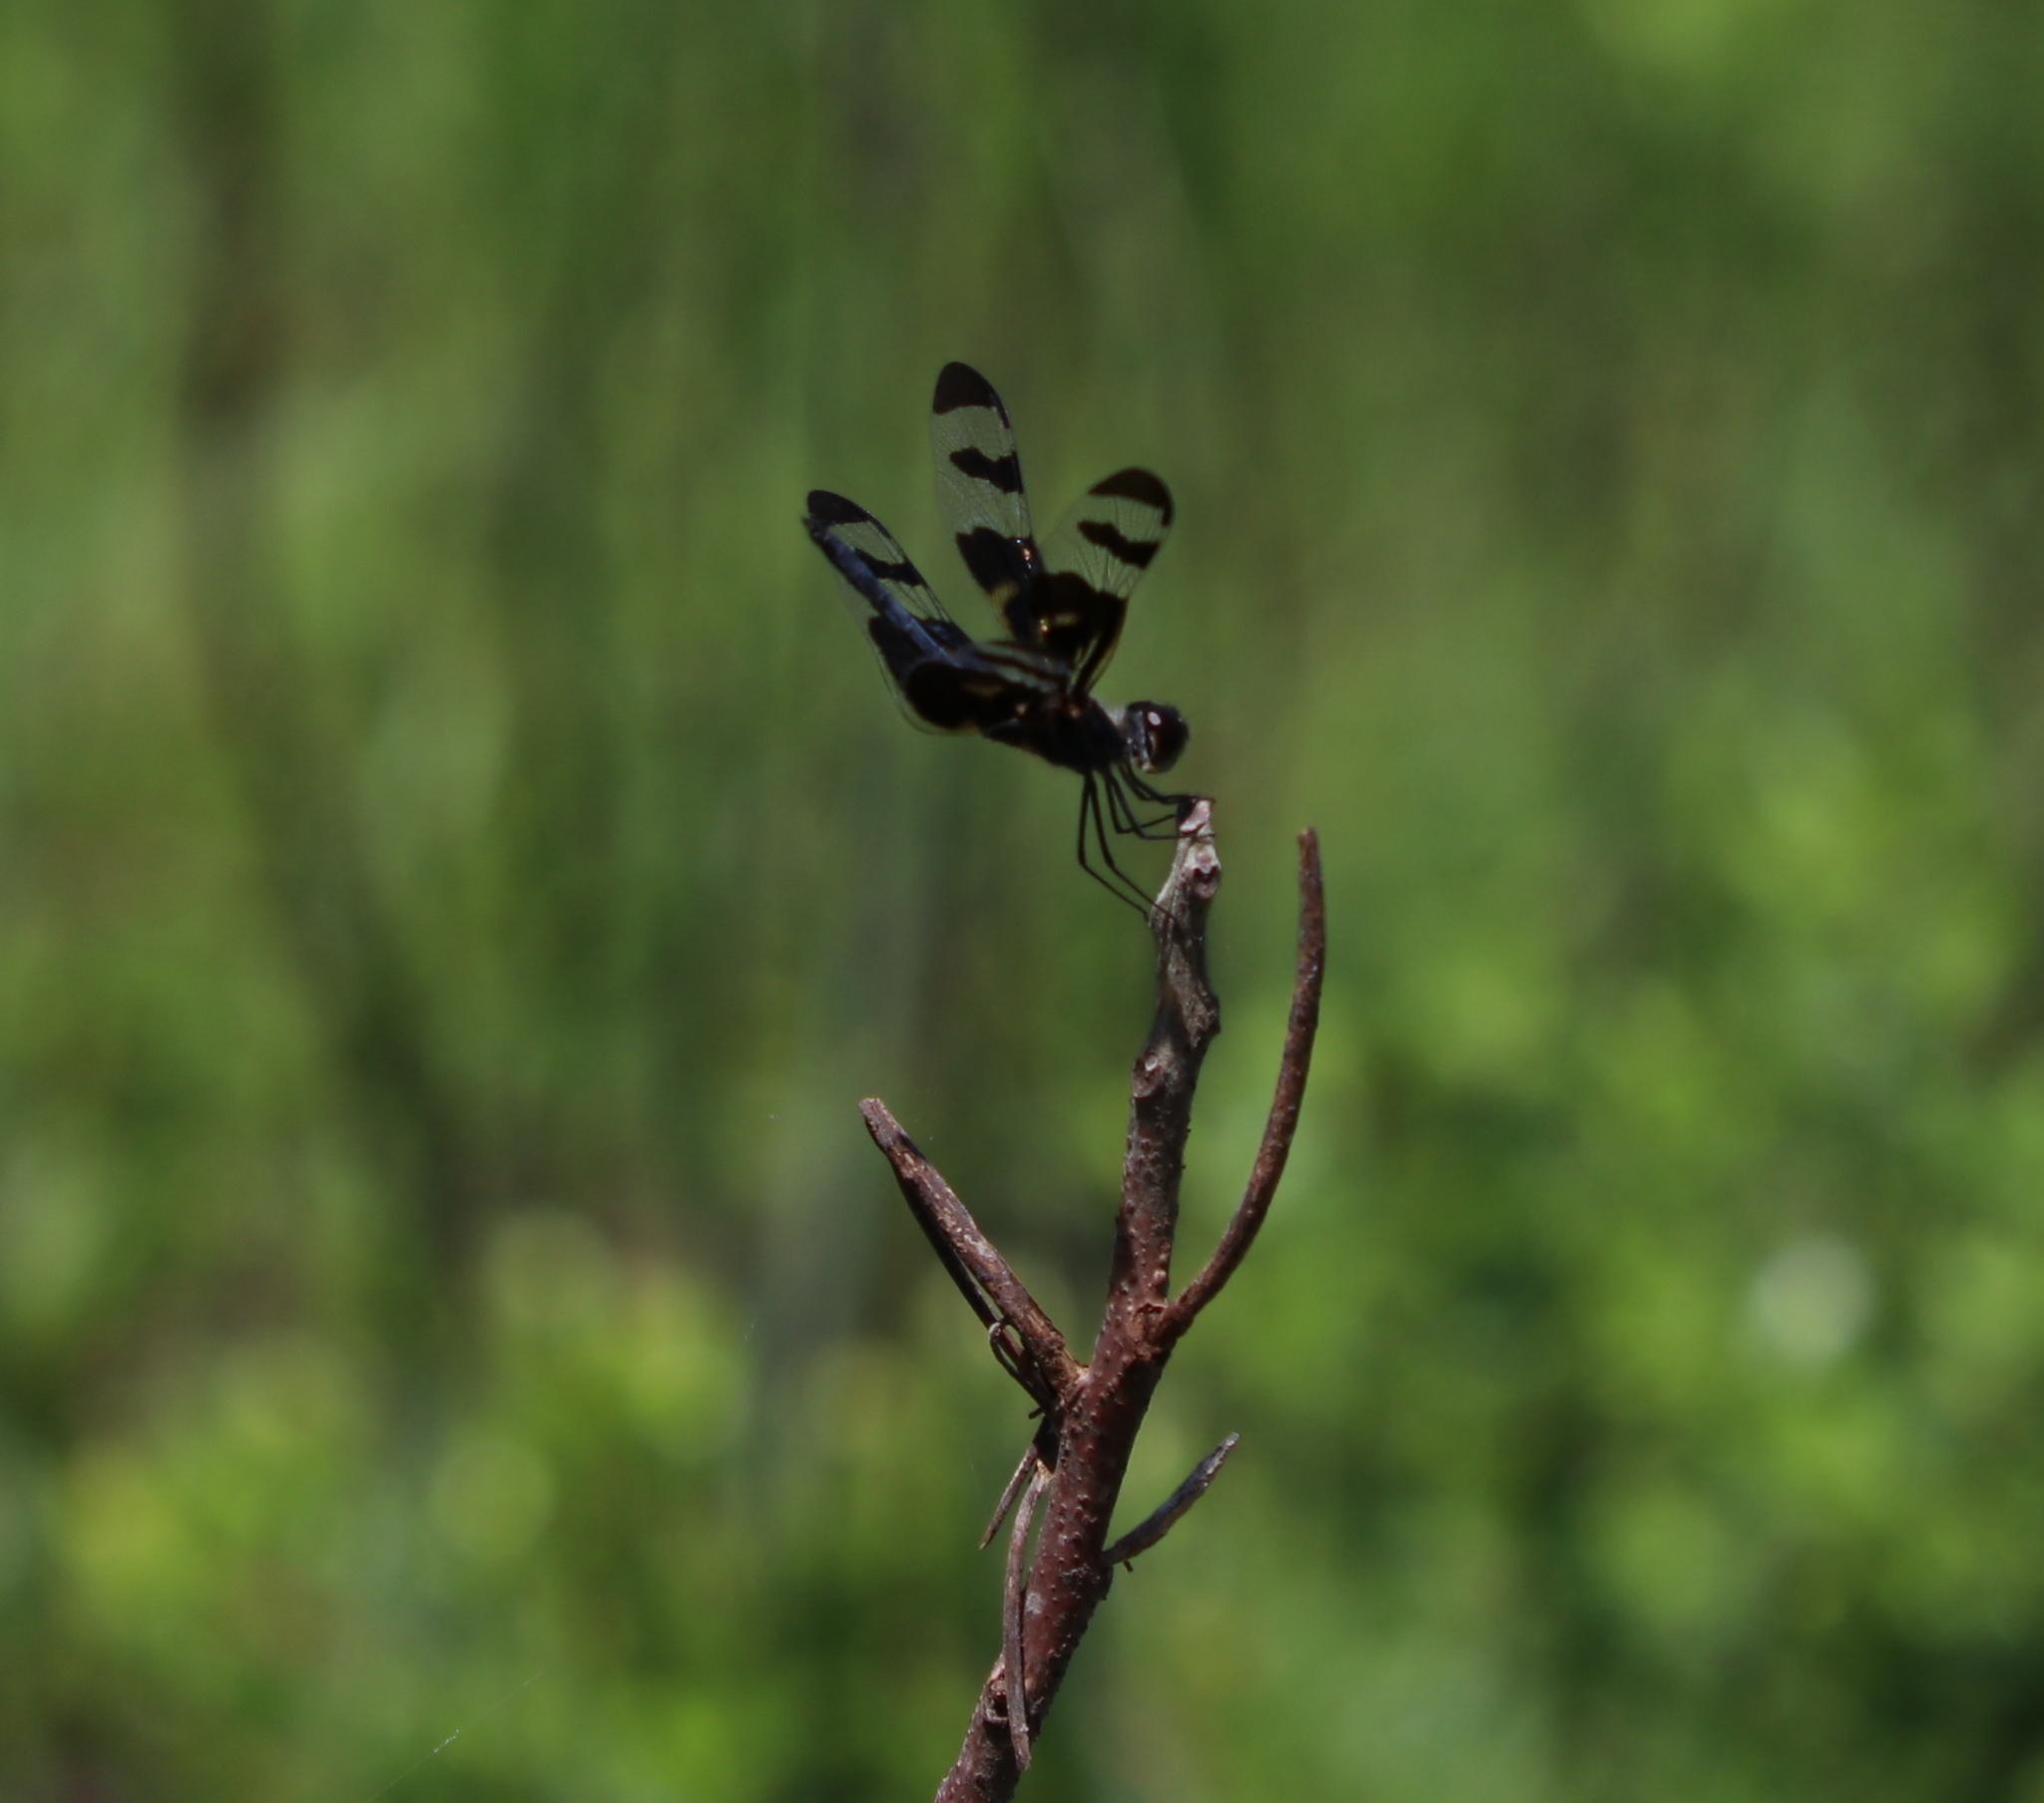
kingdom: Animalia
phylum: Arthropoda
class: Insecta
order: Odonata
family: Libellulidae
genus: Celithemis
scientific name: Celithemis fasciata
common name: Banded pennant
